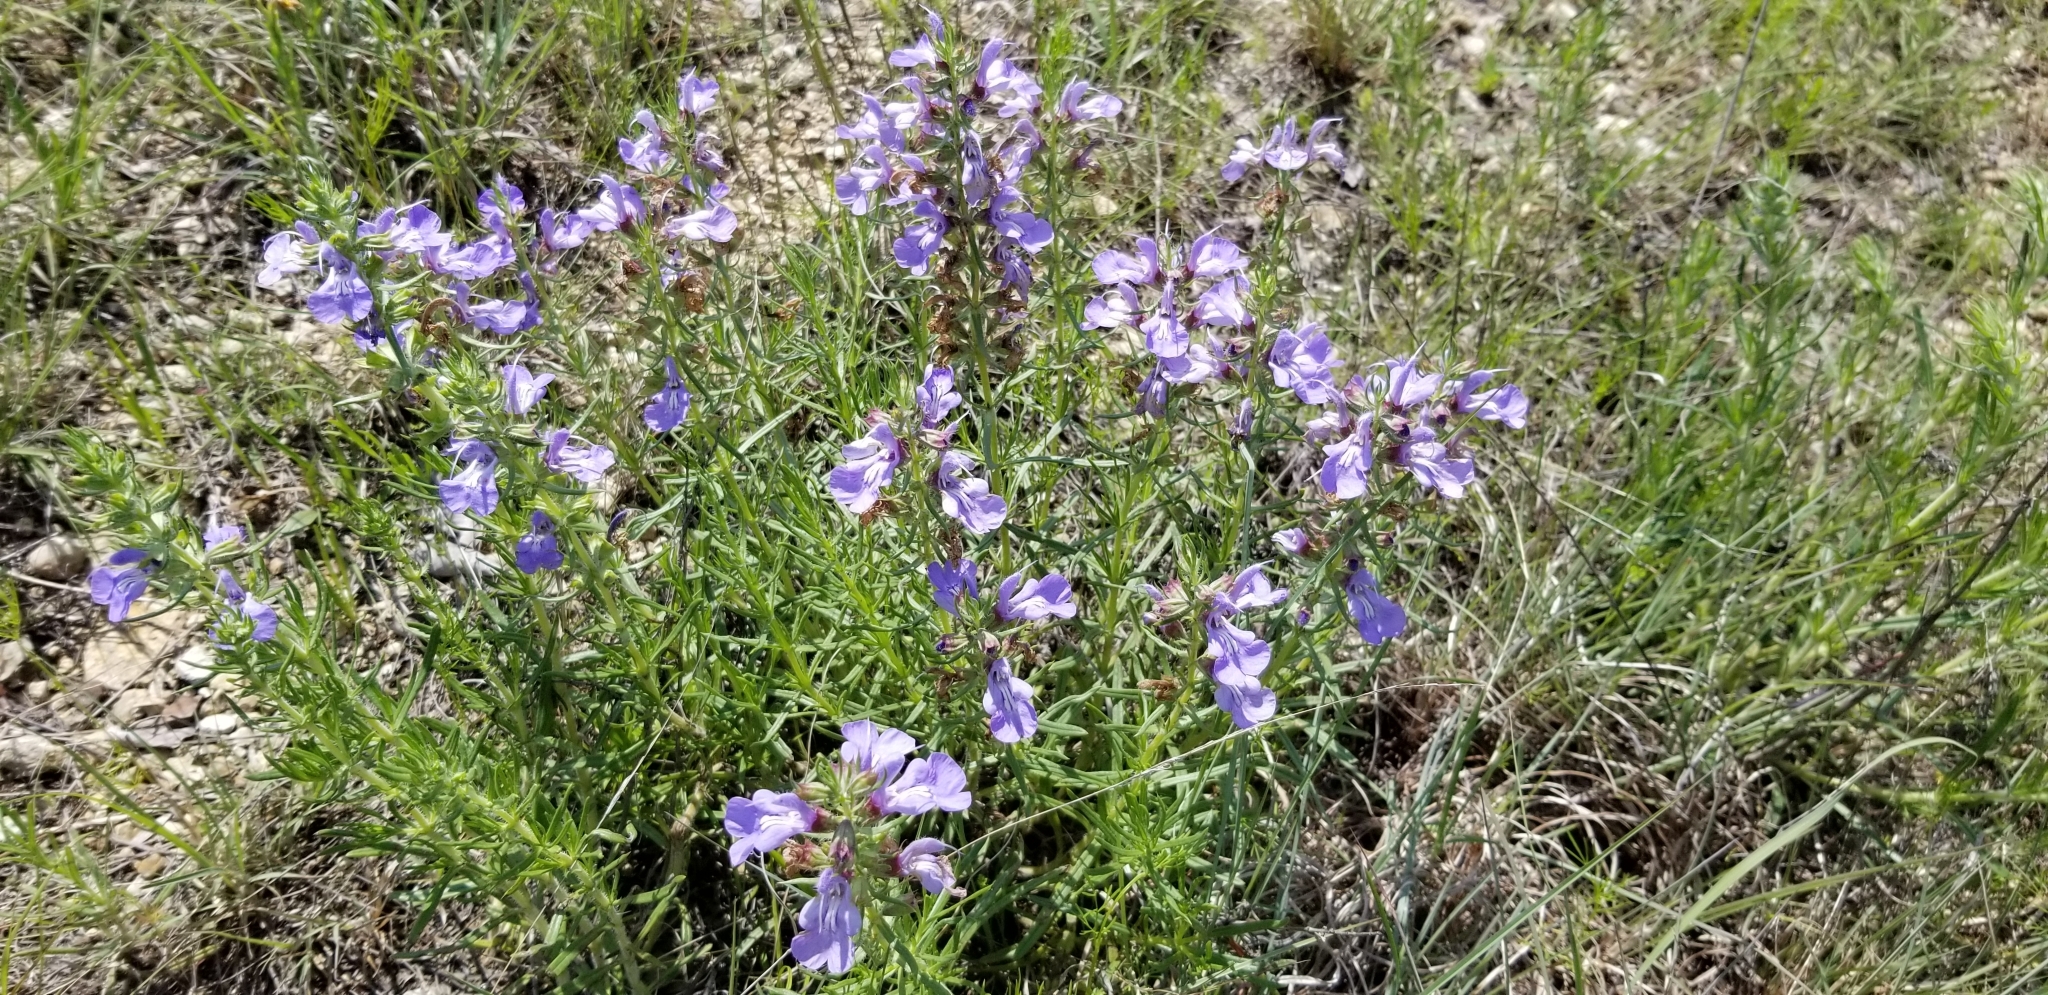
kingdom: Plantae
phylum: Tracheophyta
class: Magnoliopsida
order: Lamiales
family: Lamiaceae
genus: Salvia
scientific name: Salvia engelmannii
